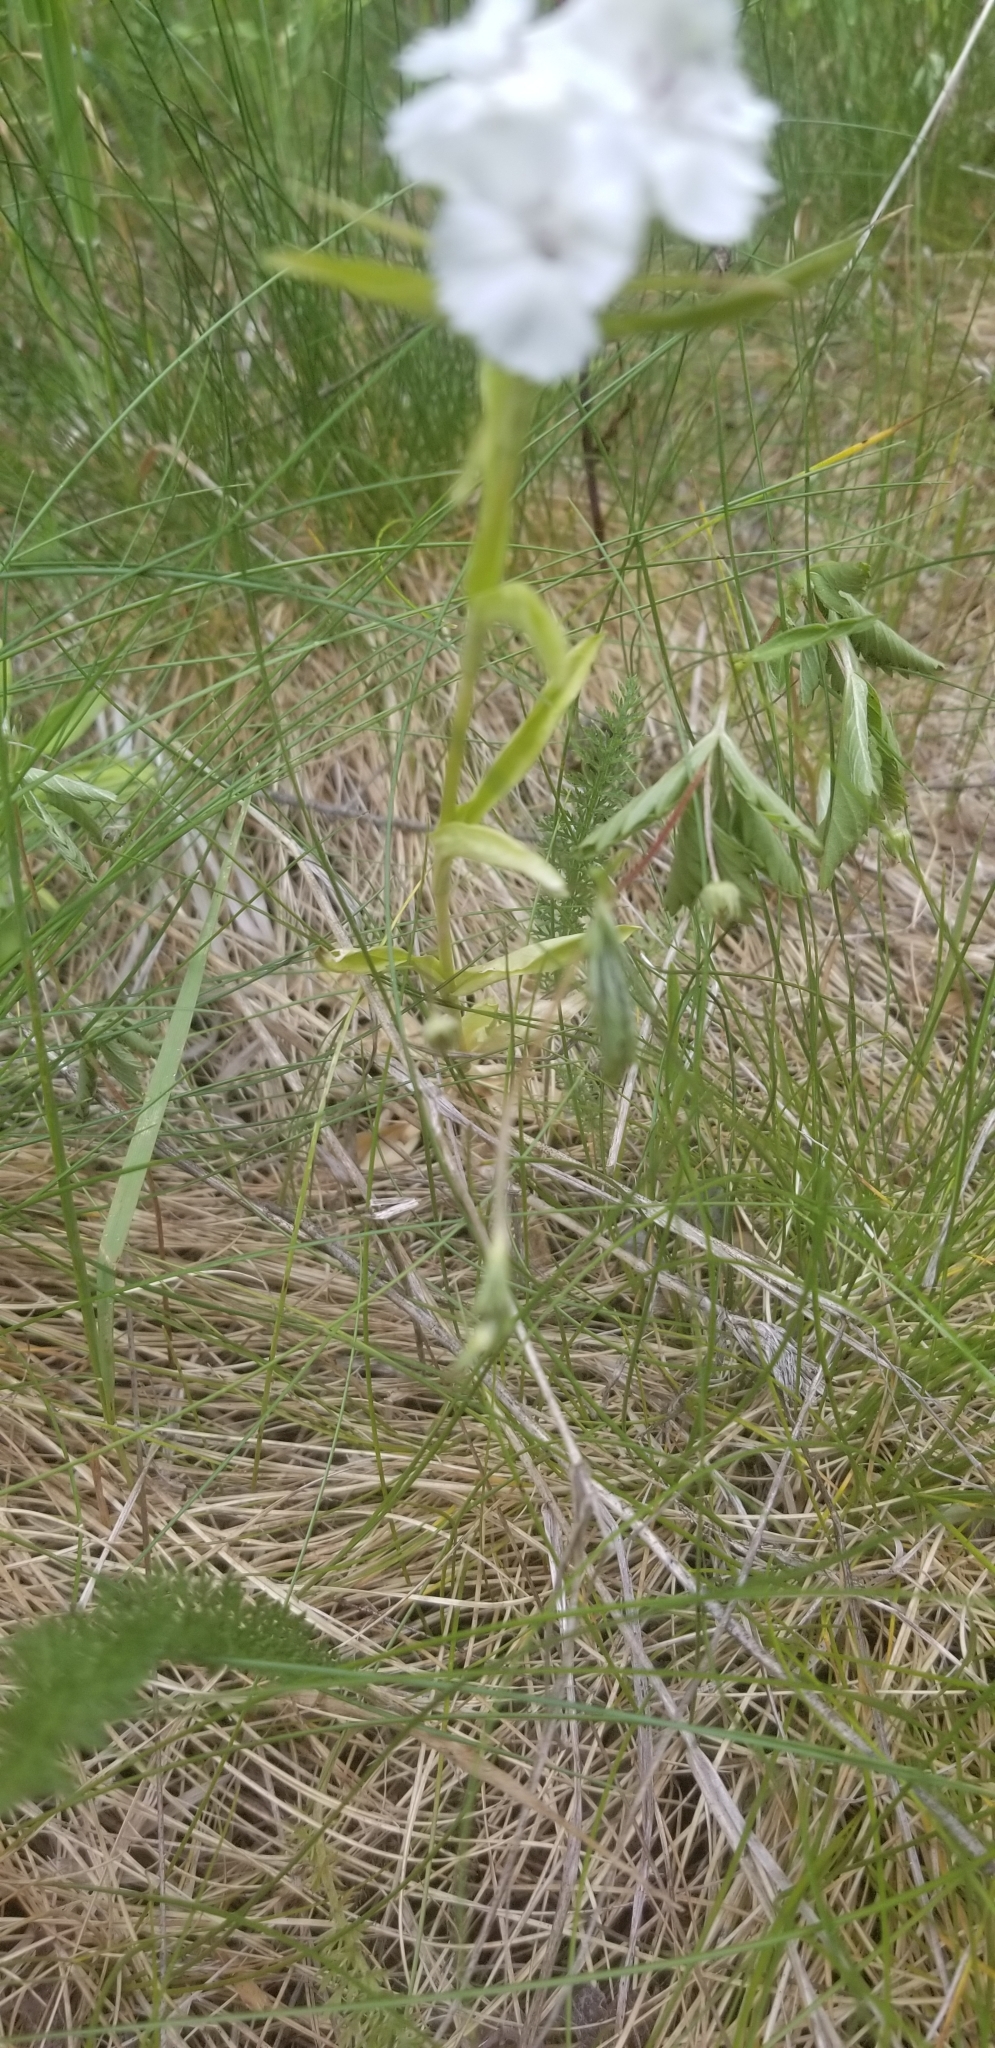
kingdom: Plantae
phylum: Tracheophyta
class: Magnoliopsida
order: Caryophyllales
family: Caryophyllaceae
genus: Dianthus
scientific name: Dianthus barbatus
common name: Sweet-william
